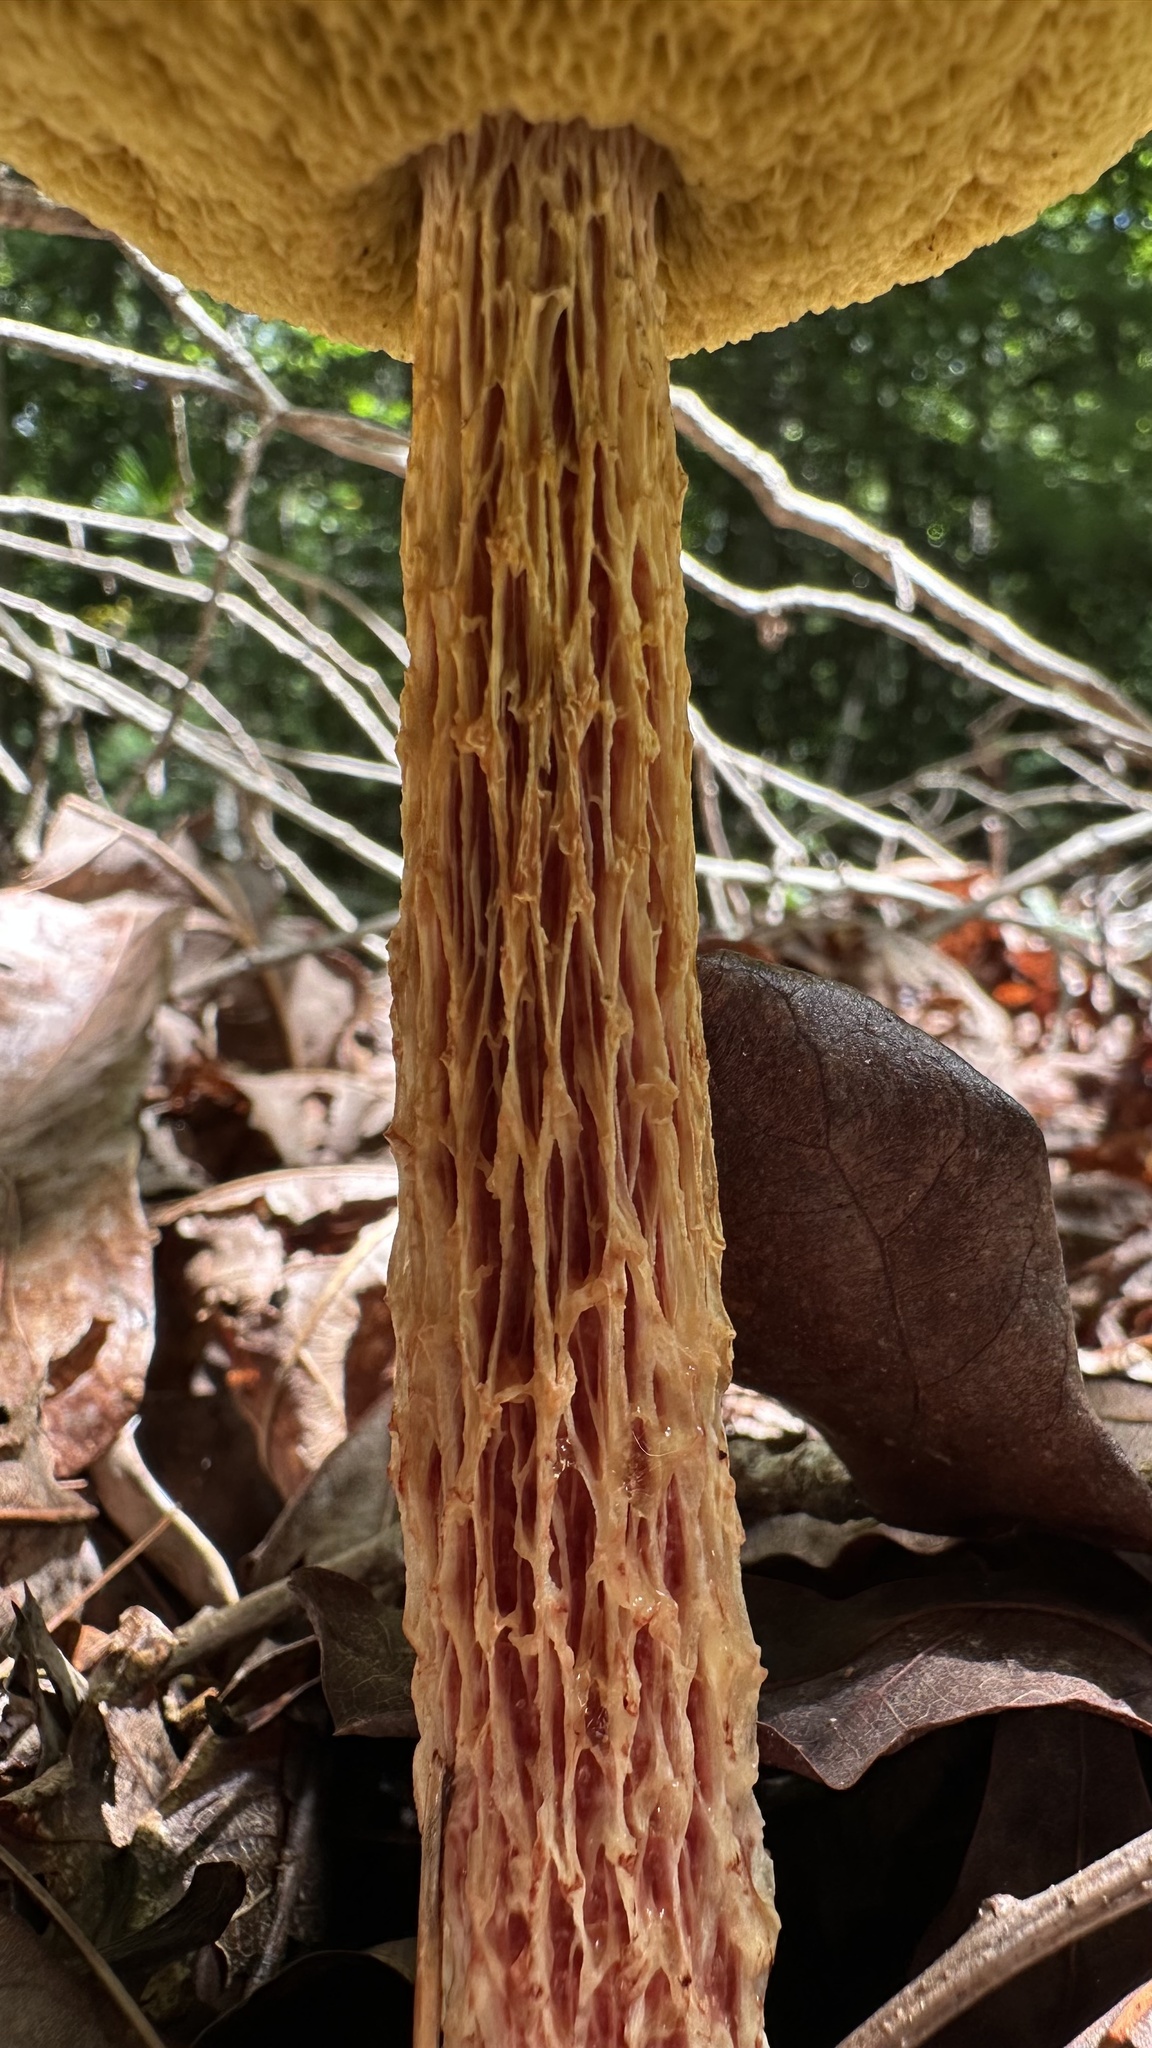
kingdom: Fungi
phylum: Basidiomycota
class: Agaricomycetes
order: Boletales
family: Boletaceae
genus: Aureoboletus
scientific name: Aureoboletus betula
